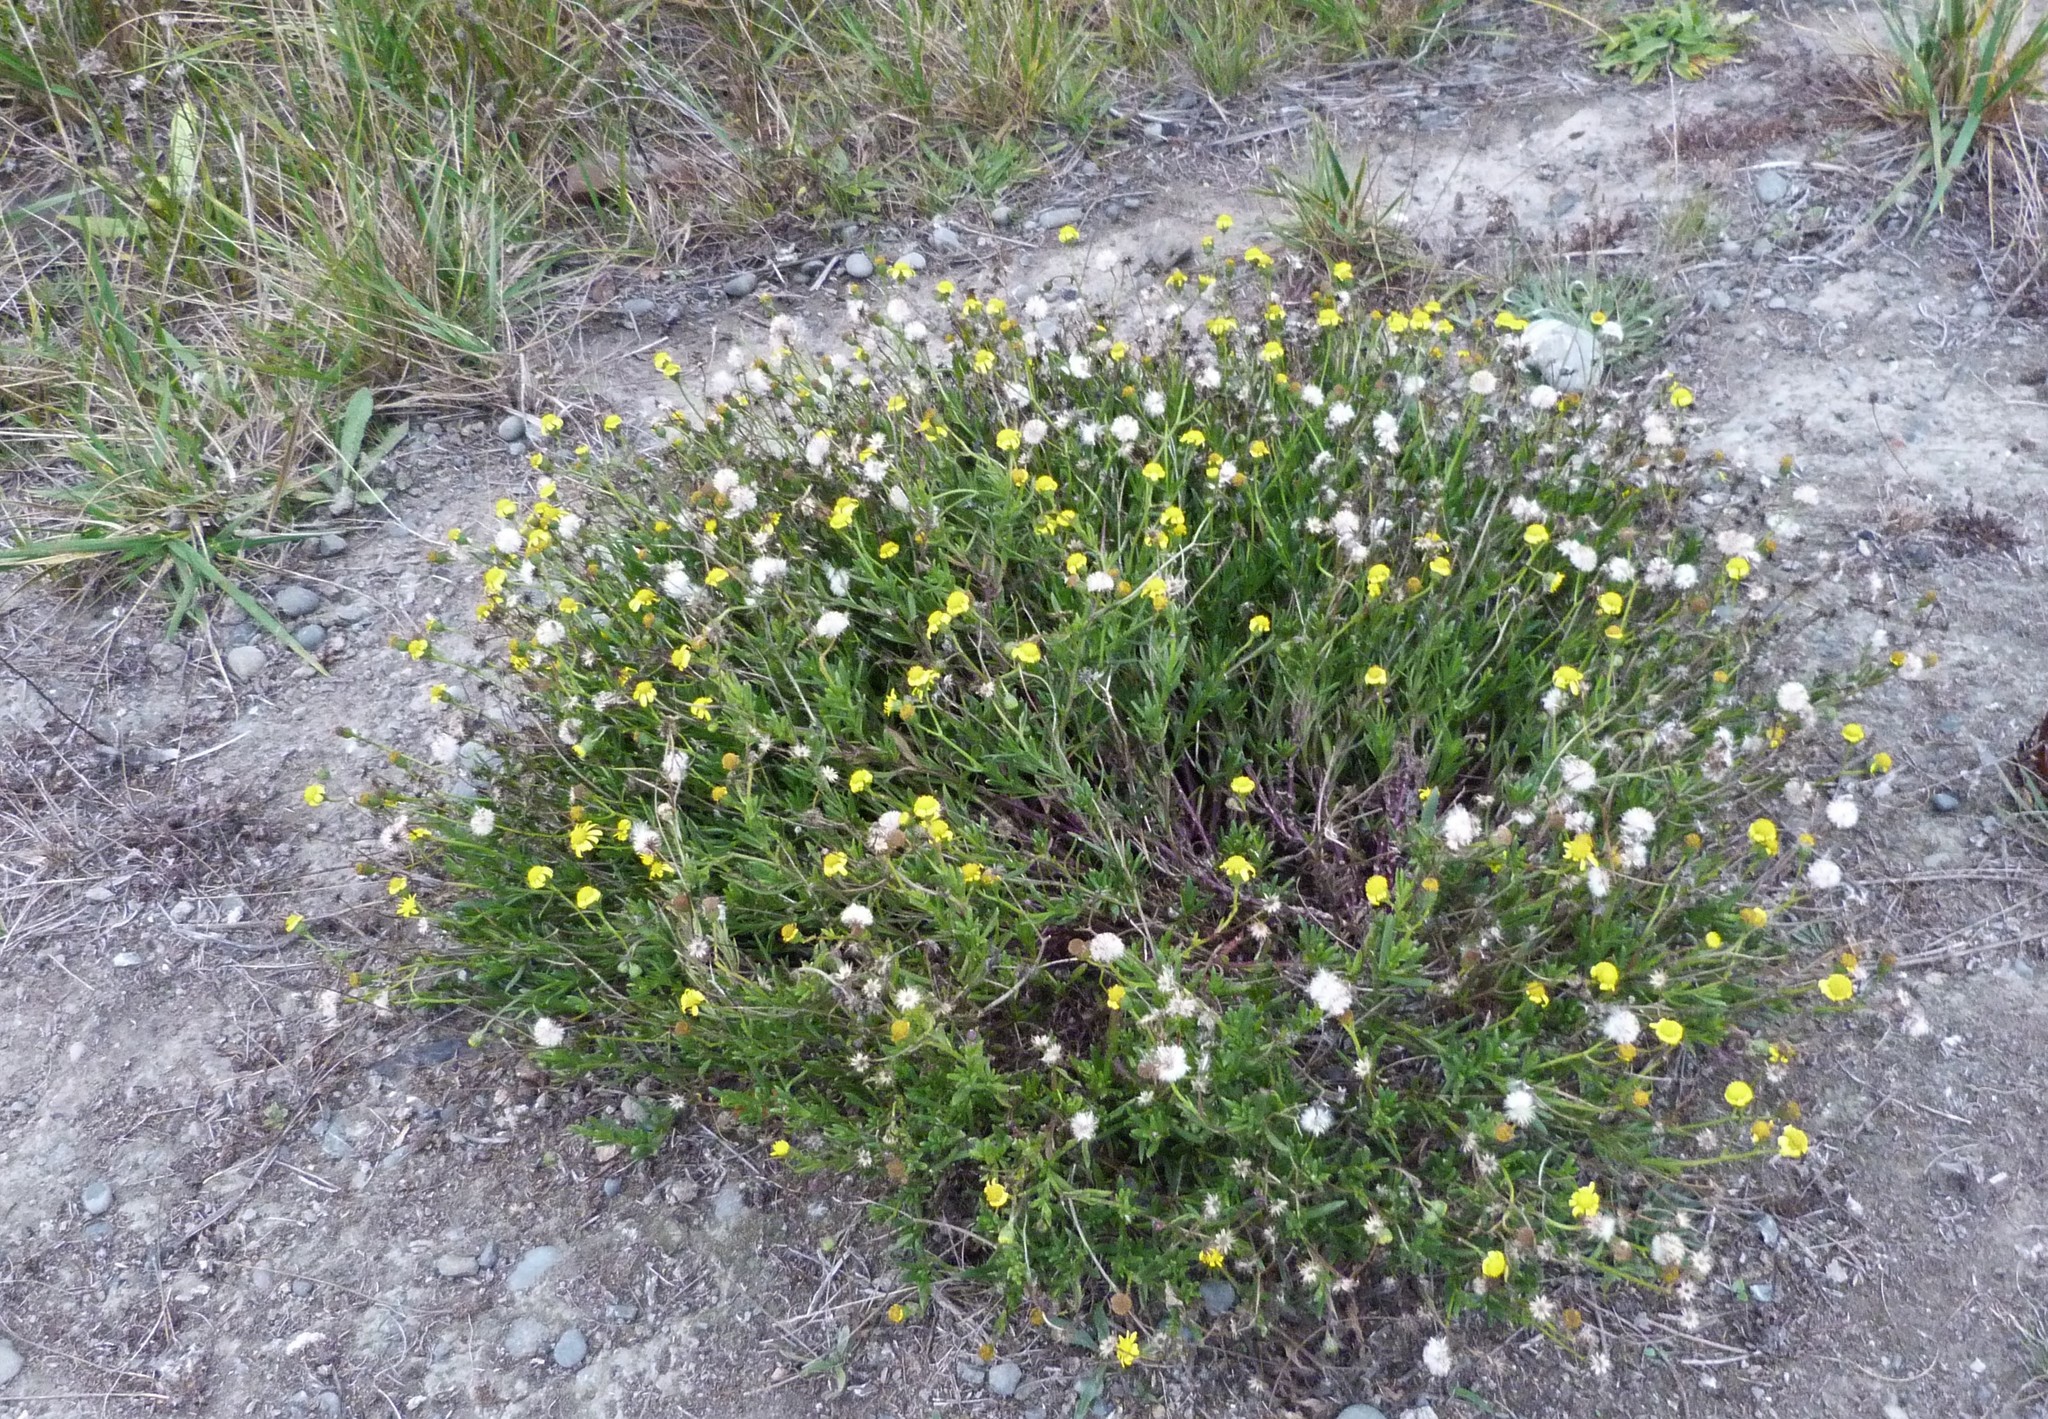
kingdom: Plantae
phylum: Tracheophyta
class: Magnoliopsida
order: Asterales
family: Asteraceae
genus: Senecio
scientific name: Senecio skirrhodon
